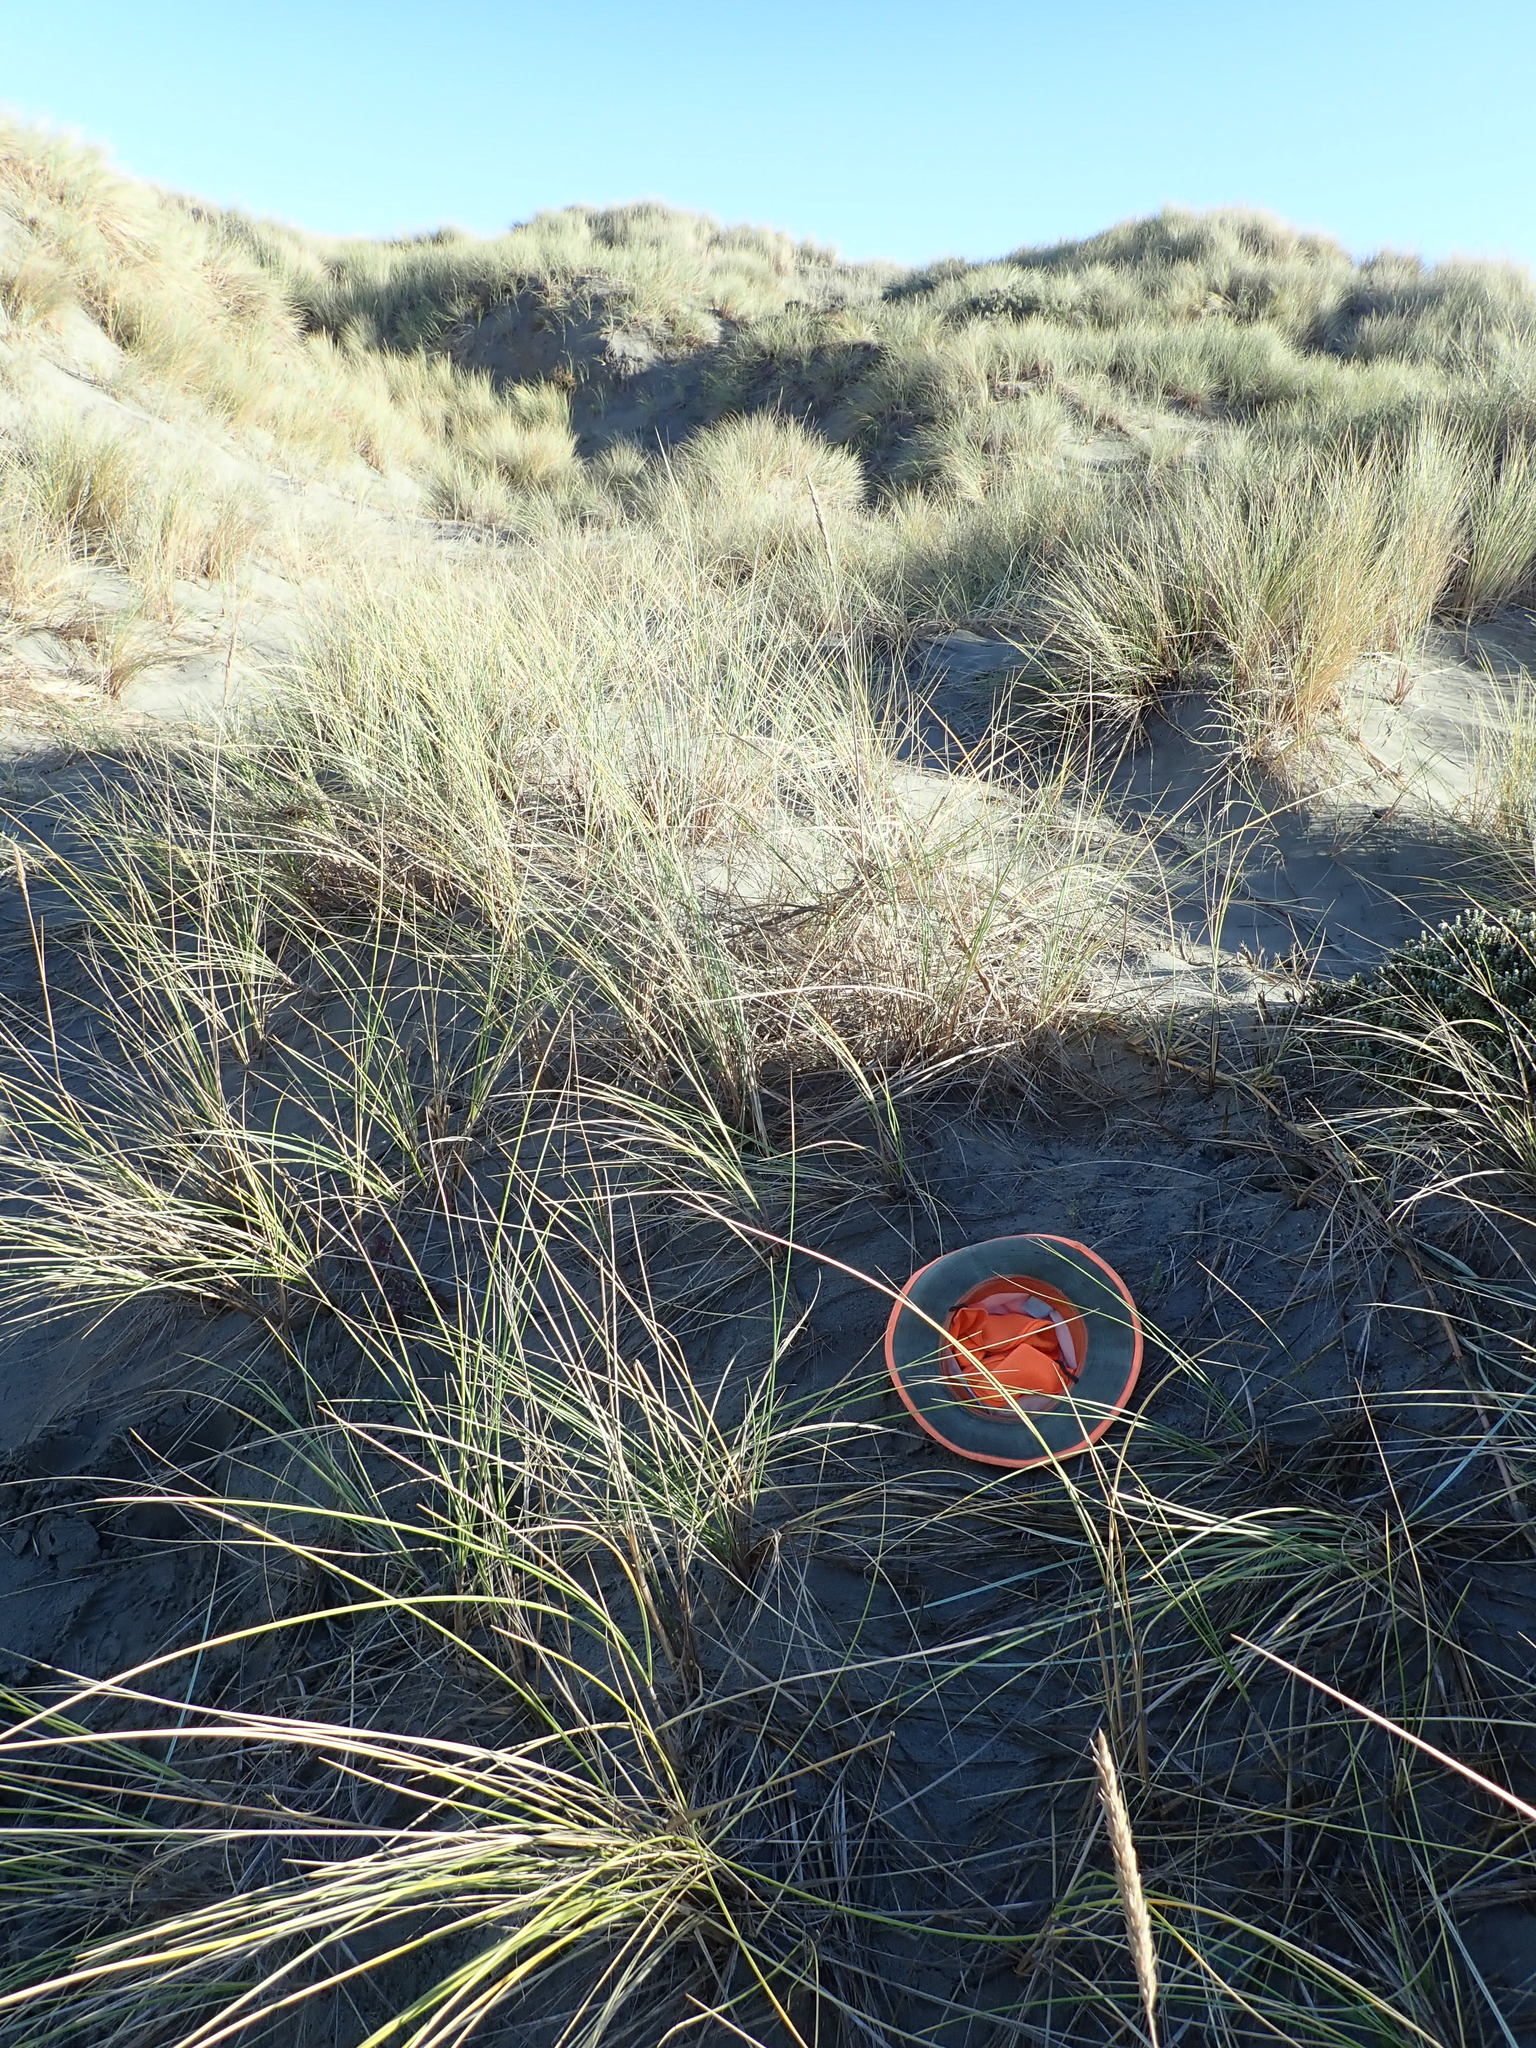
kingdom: Plantae
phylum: Tracheophyta
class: Magnoliopsida
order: Malvales
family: Thymelaeaceae
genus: Pimelea
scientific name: Pimelea villosa
